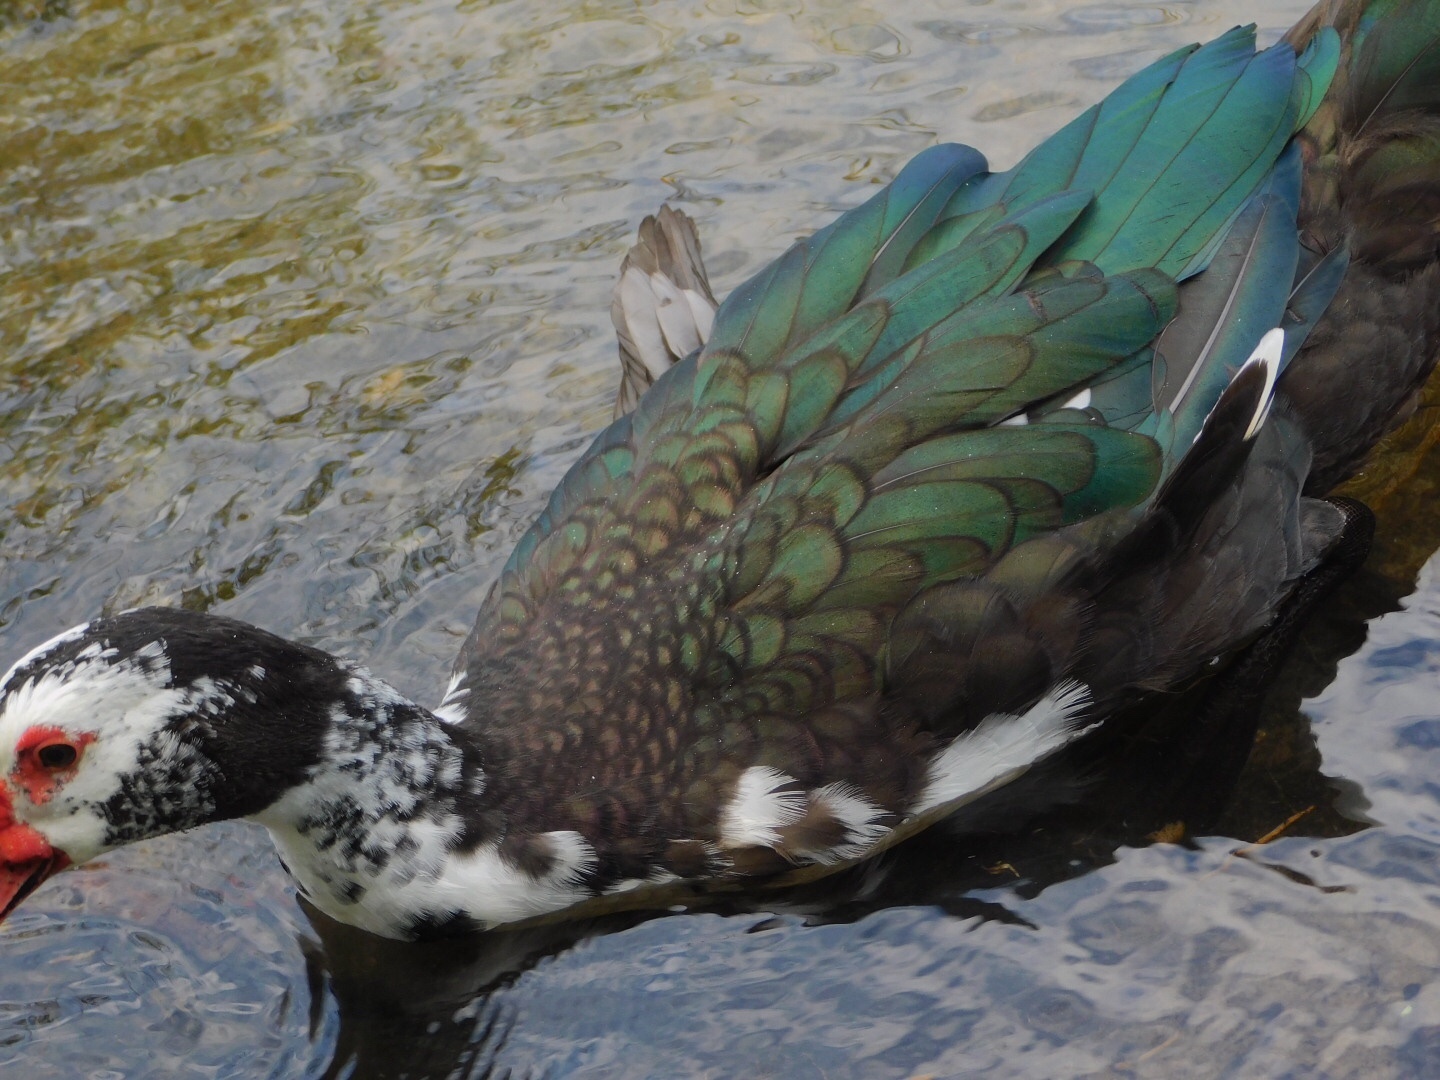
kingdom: Animalia
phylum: Chordata
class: Aves
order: Anseriformes
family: Anatidae
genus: Cairina
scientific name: Cairina moschata
